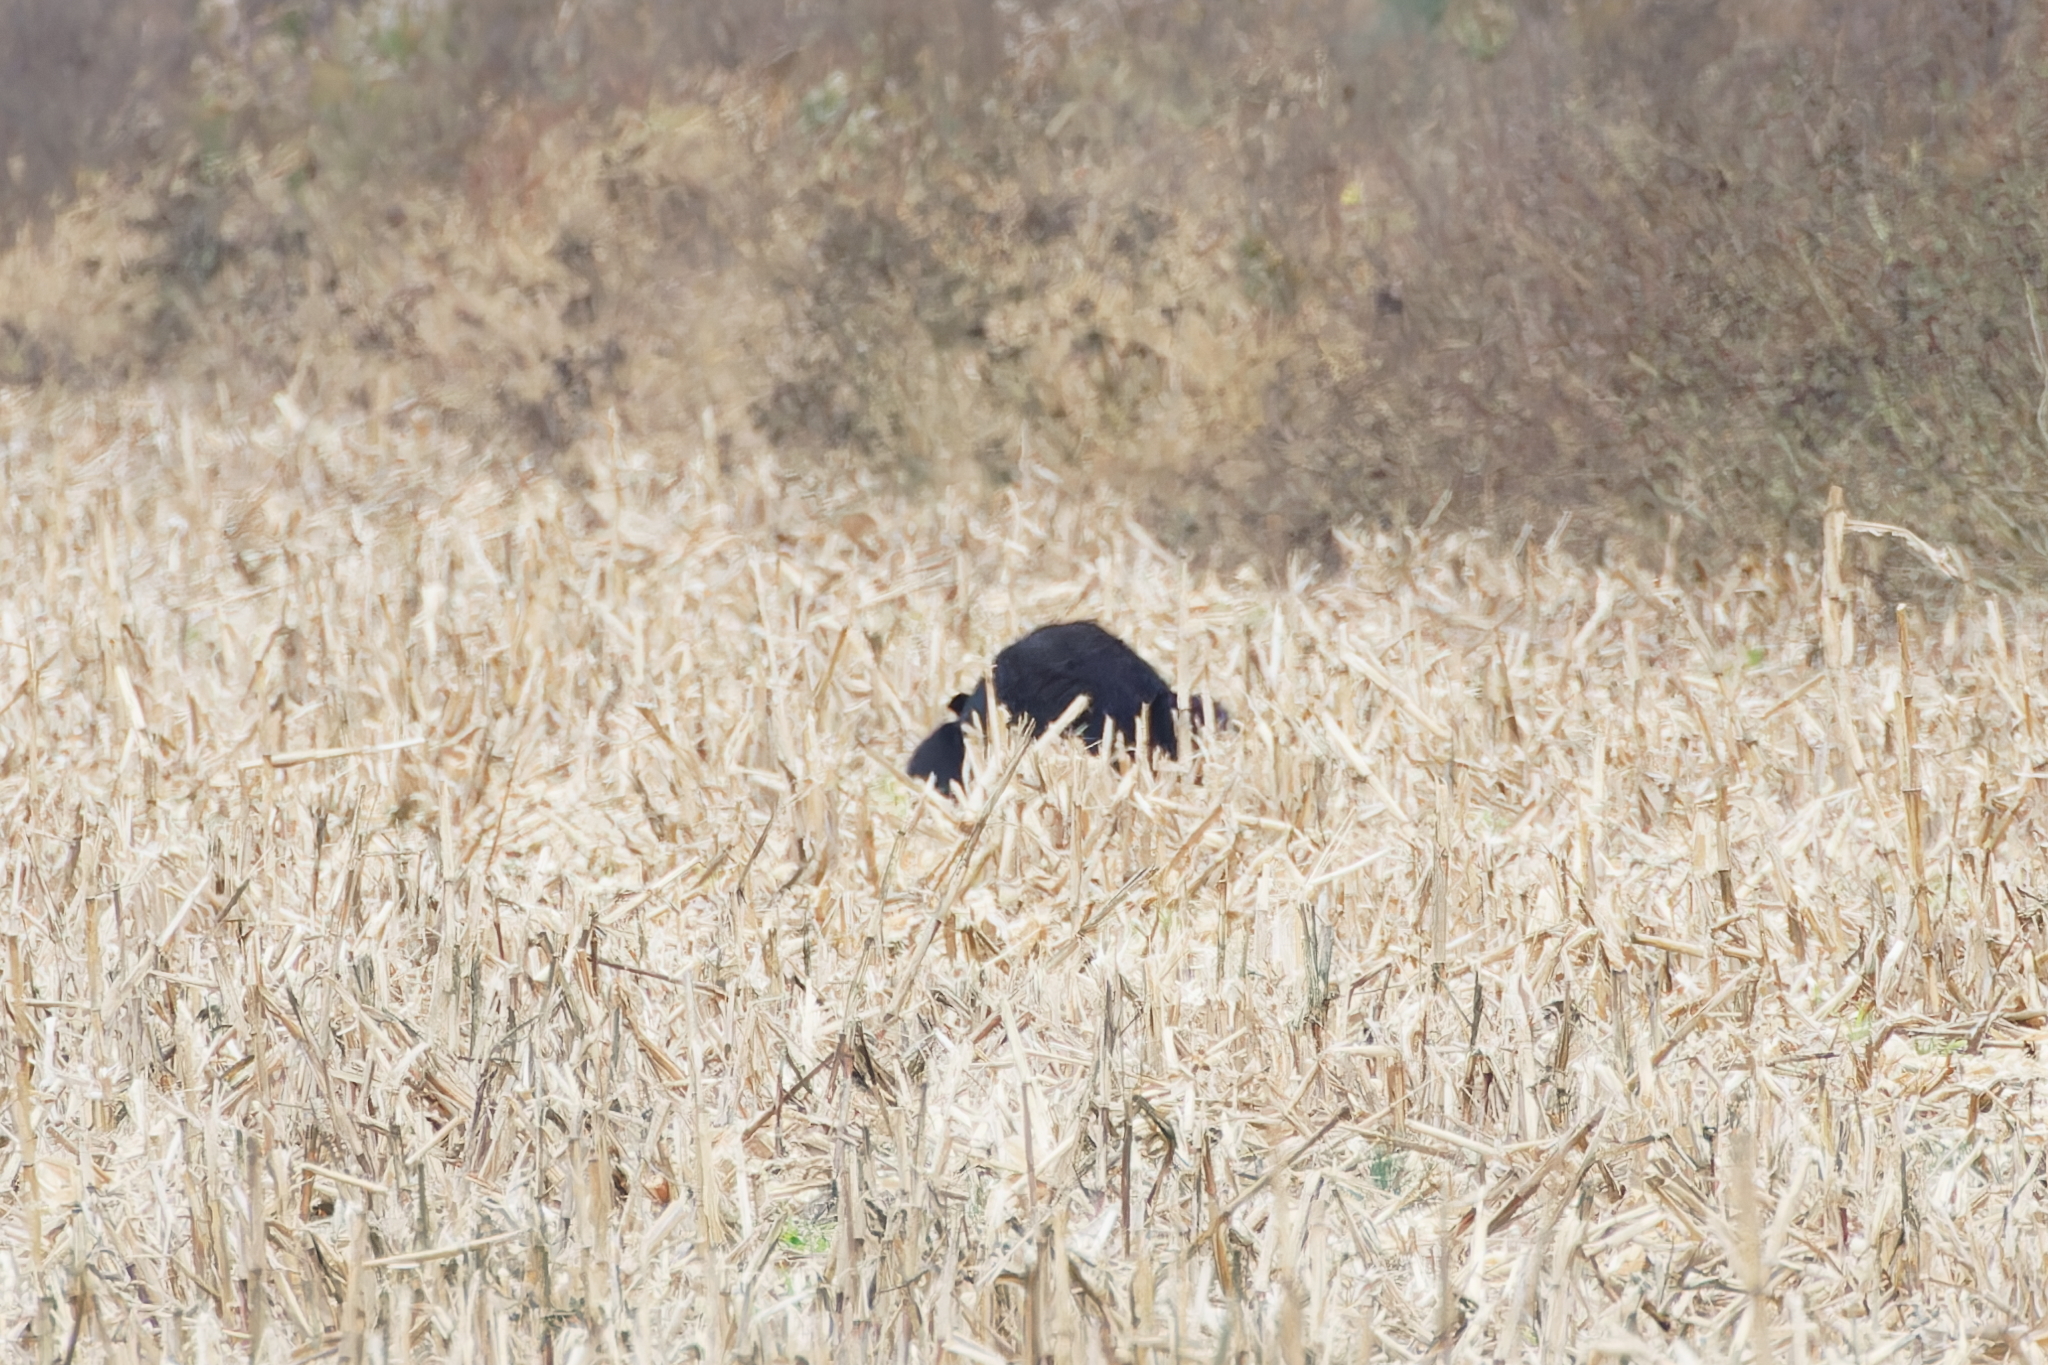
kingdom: Animalia
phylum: Chordata
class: Mammalia
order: Carnivora
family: Ursidae
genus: Ursus
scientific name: Ursus americanus
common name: American black bear
